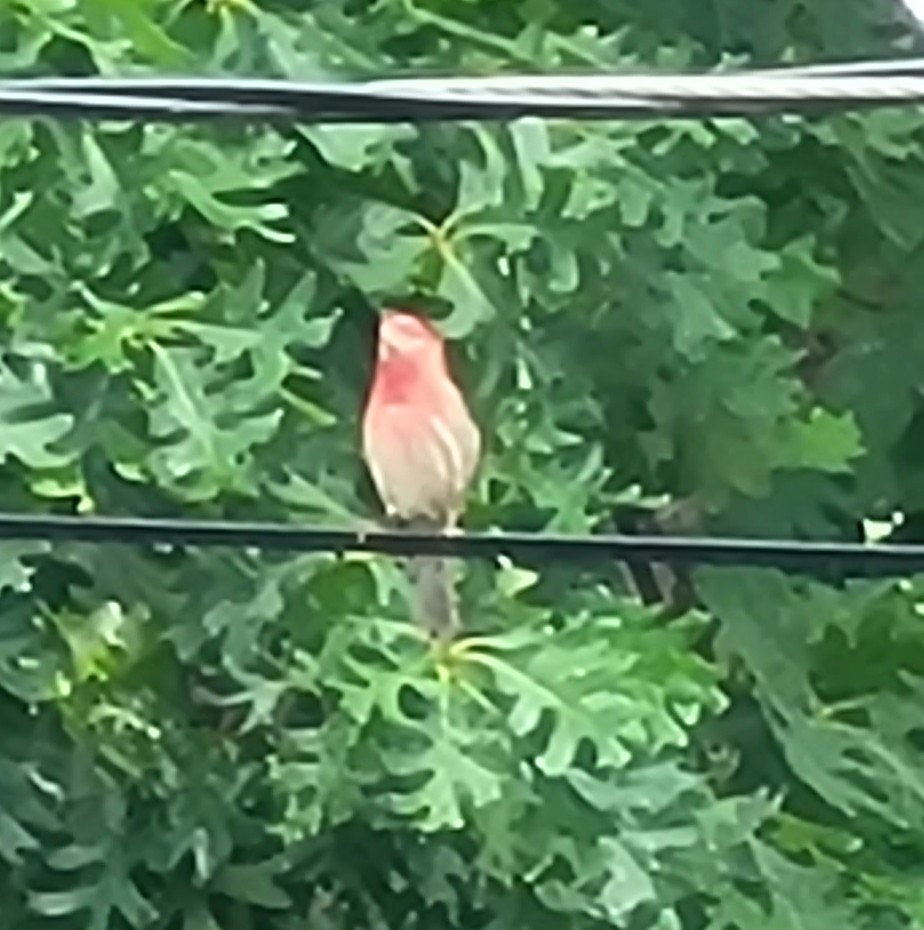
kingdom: Animalia
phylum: Chordata
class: Aves
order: Passeriformes
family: Fringillidae
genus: Haemorhous
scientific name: Haemorhous mexicanus
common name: House finch
